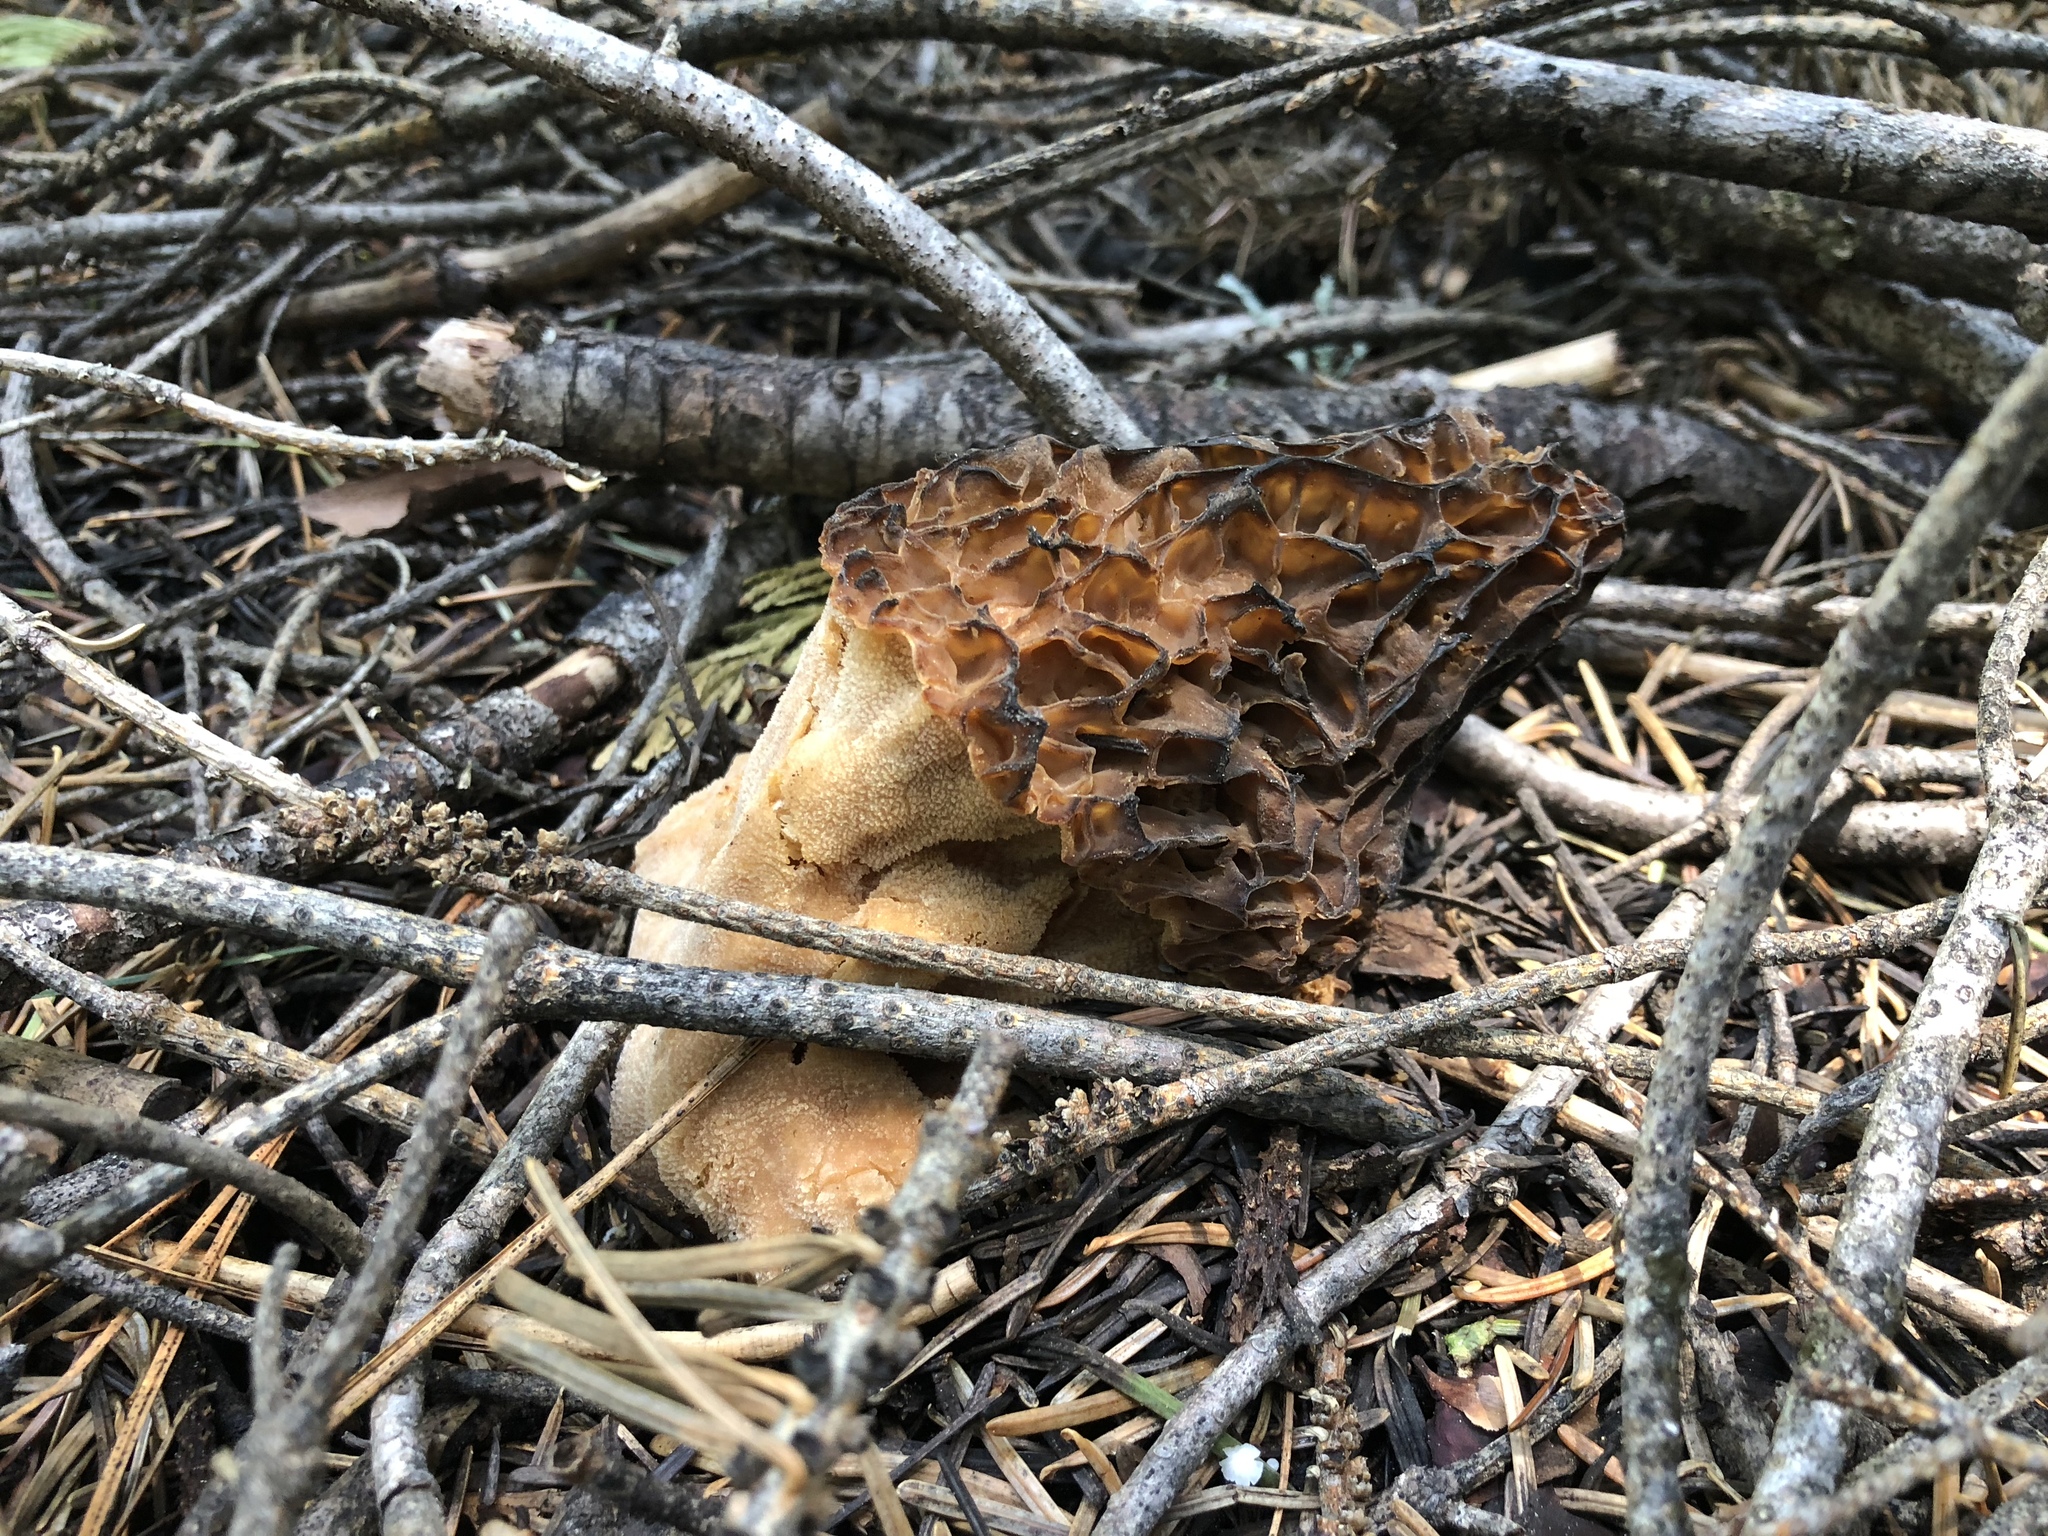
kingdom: Fungi
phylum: Ascomycota
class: Pezizomycetes
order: Pezizales
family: Morchellaceae
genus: Morchella
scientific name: Morchella snyderi
